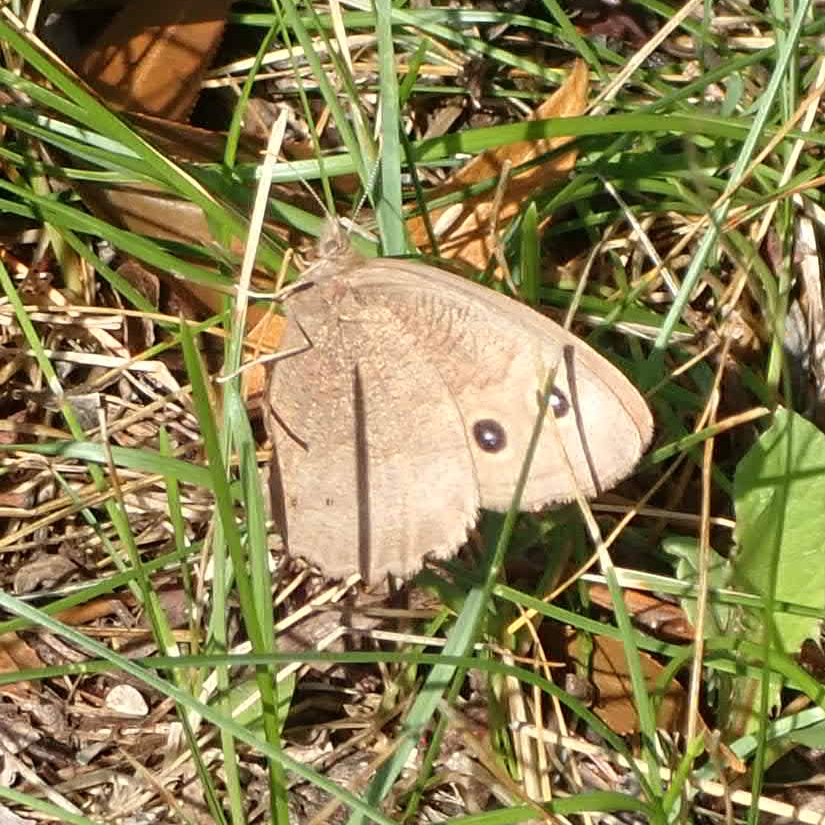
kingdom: Animalia
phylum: Arthropoda
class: Insecta
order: Lepidoptera
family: Nymphalidae
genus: Cercyonis
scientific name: Cercyonis pegala
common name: Common wood-nymph
